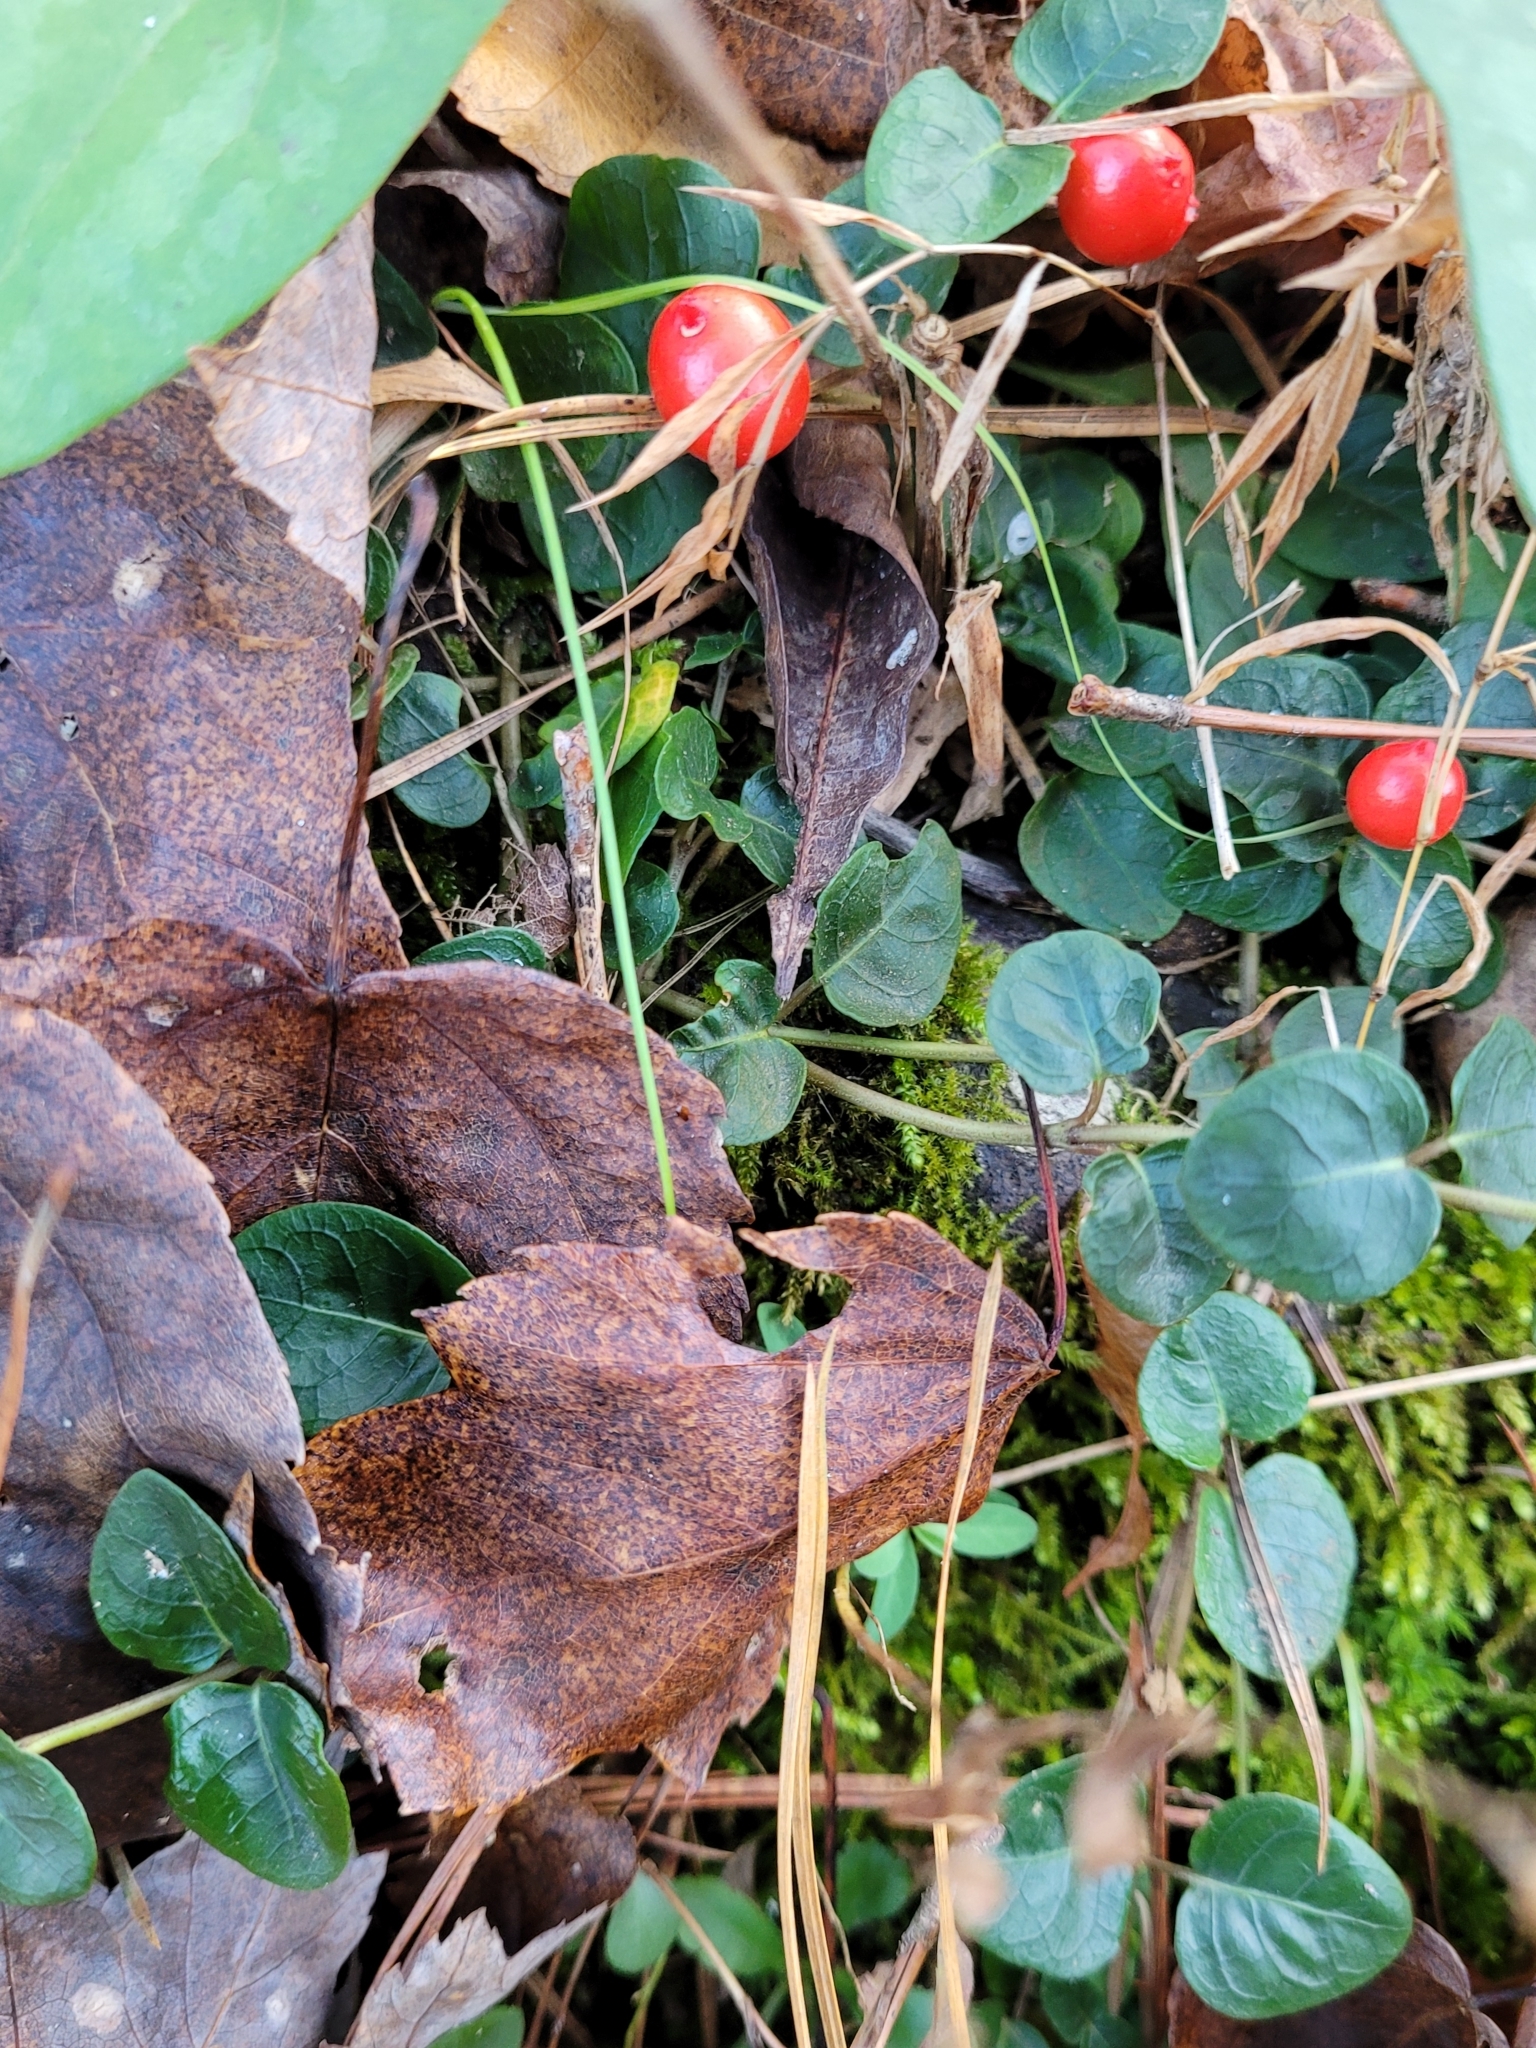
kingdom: Plantae
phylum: Tracheophyta
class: Magnoliopsida
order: Gentianales
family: Rubiaceae
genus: Mitchella
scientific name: Mitchella repens
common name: Partridge-berry
